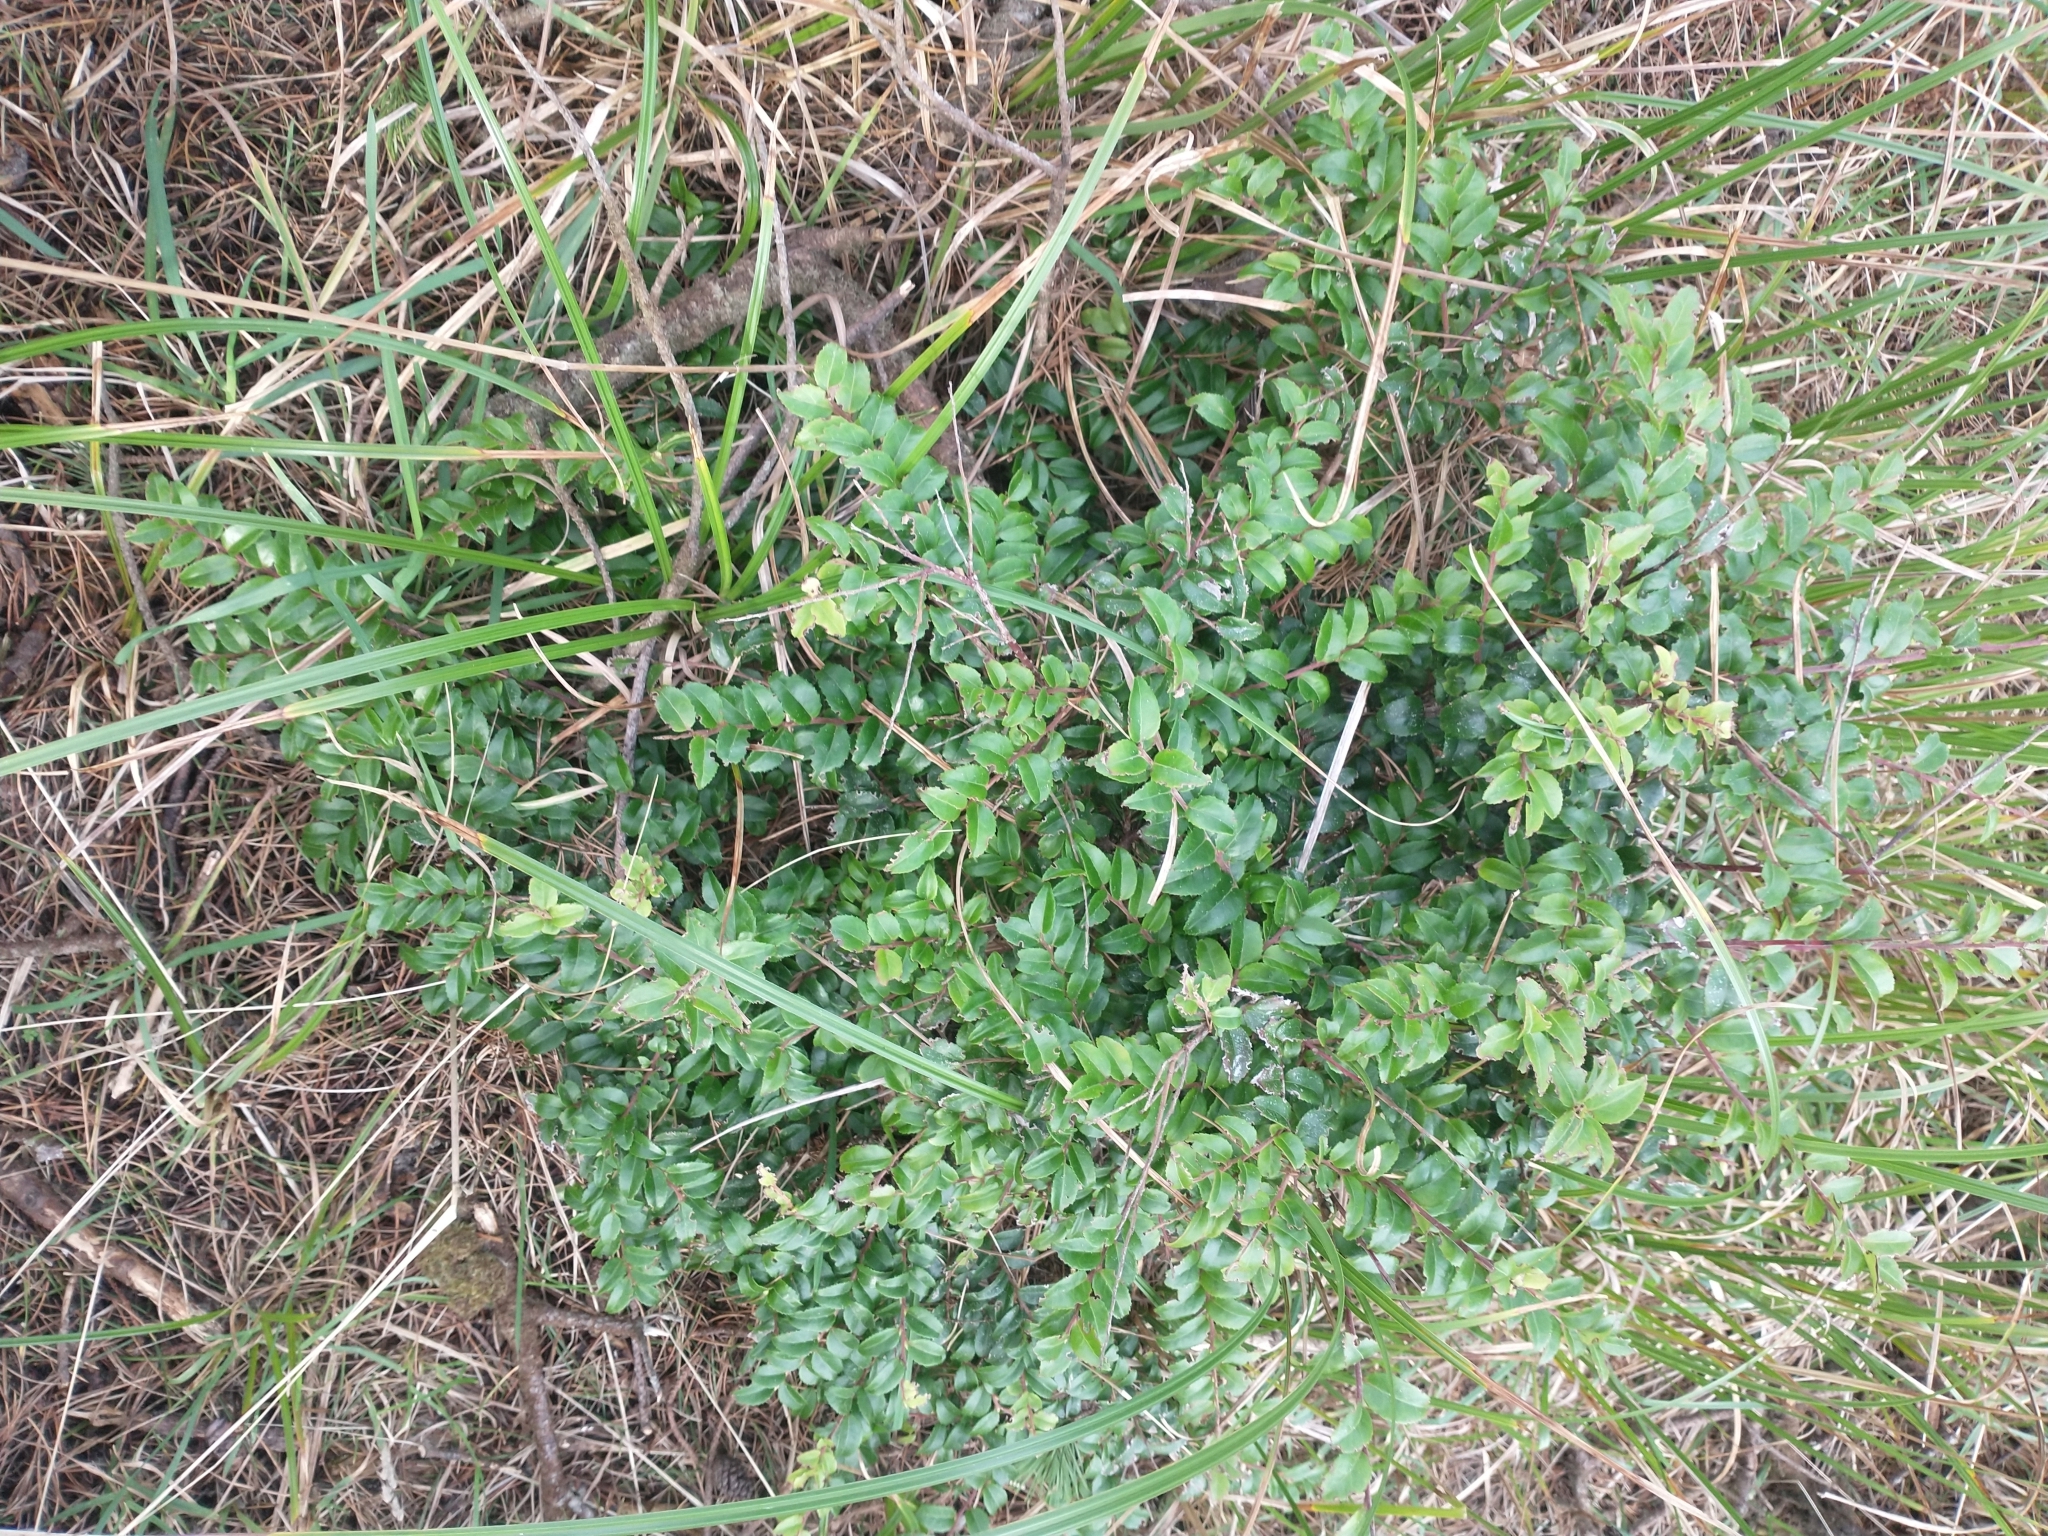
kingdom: Plantae
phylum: Tracheophyta
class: Magnoliopsida
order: Ericales
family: Ericaceae
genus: Vaccinium
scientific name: Vaccinium ovatum
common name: California-huckleberry
